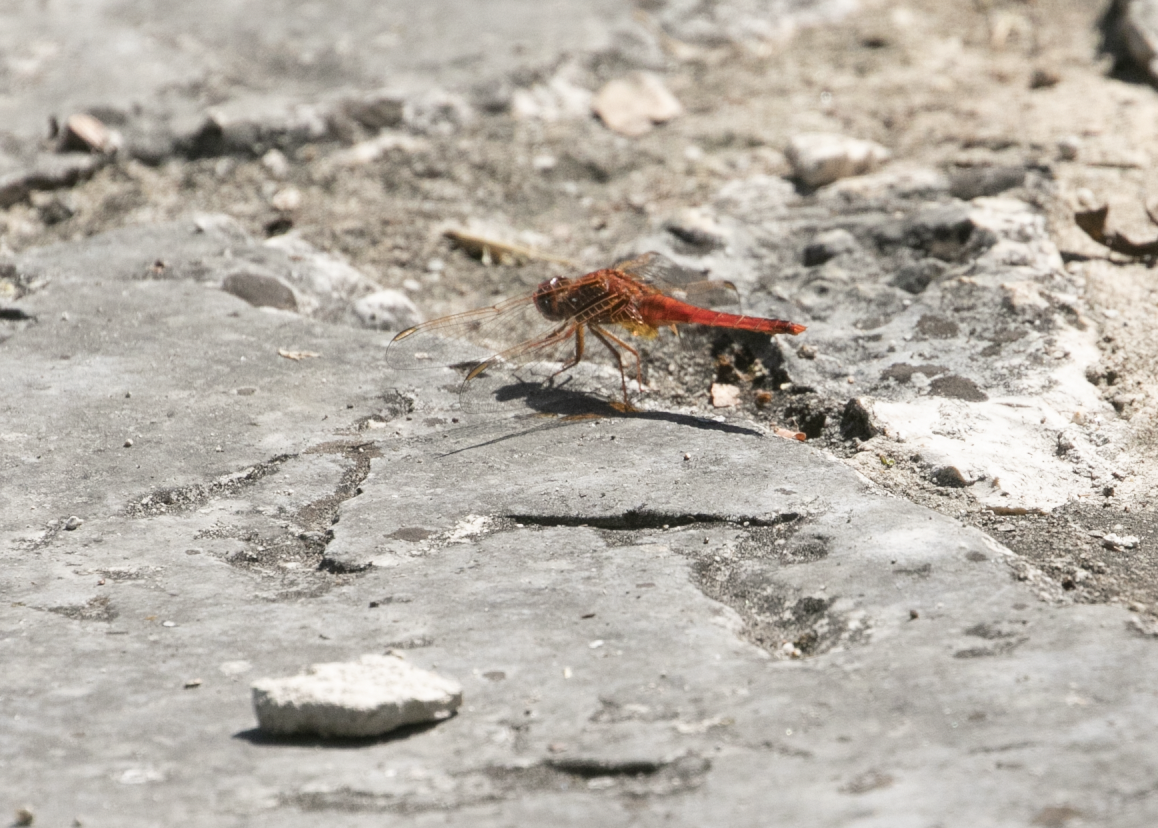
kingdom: Animalia
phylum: Arthropoda
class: Insecta
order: Odonata
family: Libellulidae
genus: Crocothemis
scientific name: Crocothemis erythraea
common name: Scarlet dragonfly
